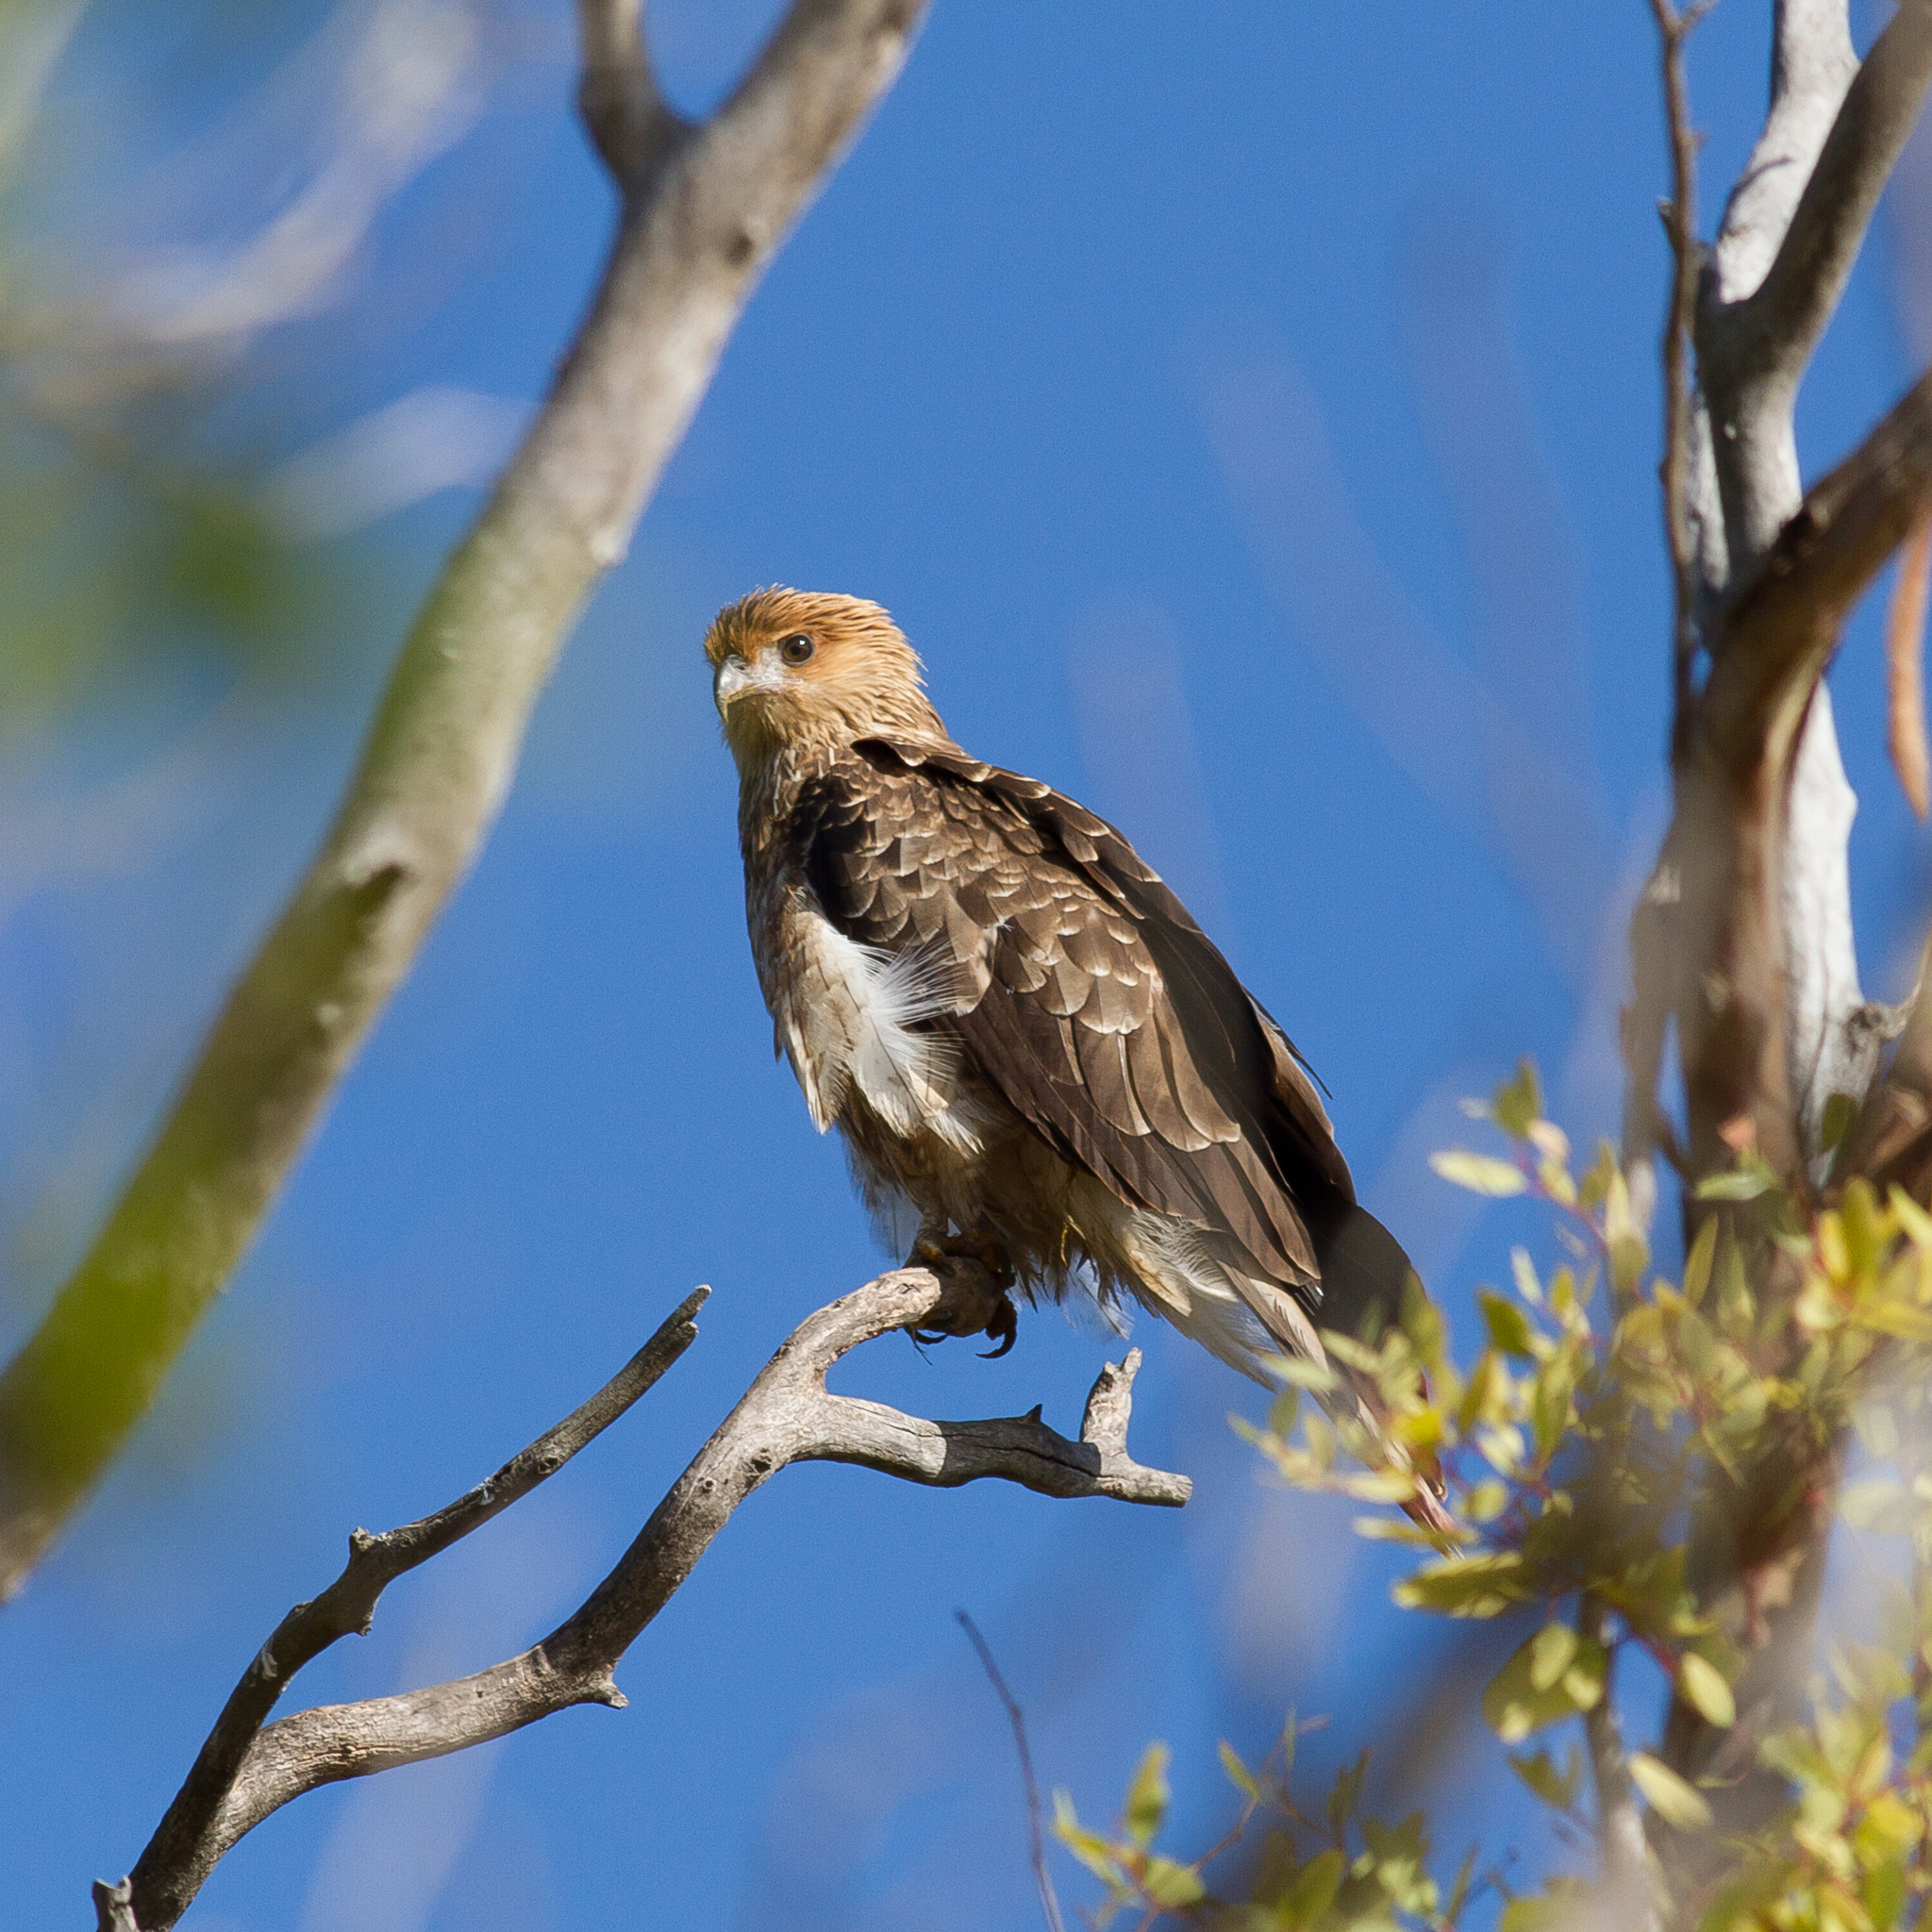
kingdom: Animalia
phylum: Chordata
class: Aves
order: Accipitriformes
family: Accipitridae
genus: Haliastur
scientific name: Haliastur sphenurus
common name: Whistling kite
